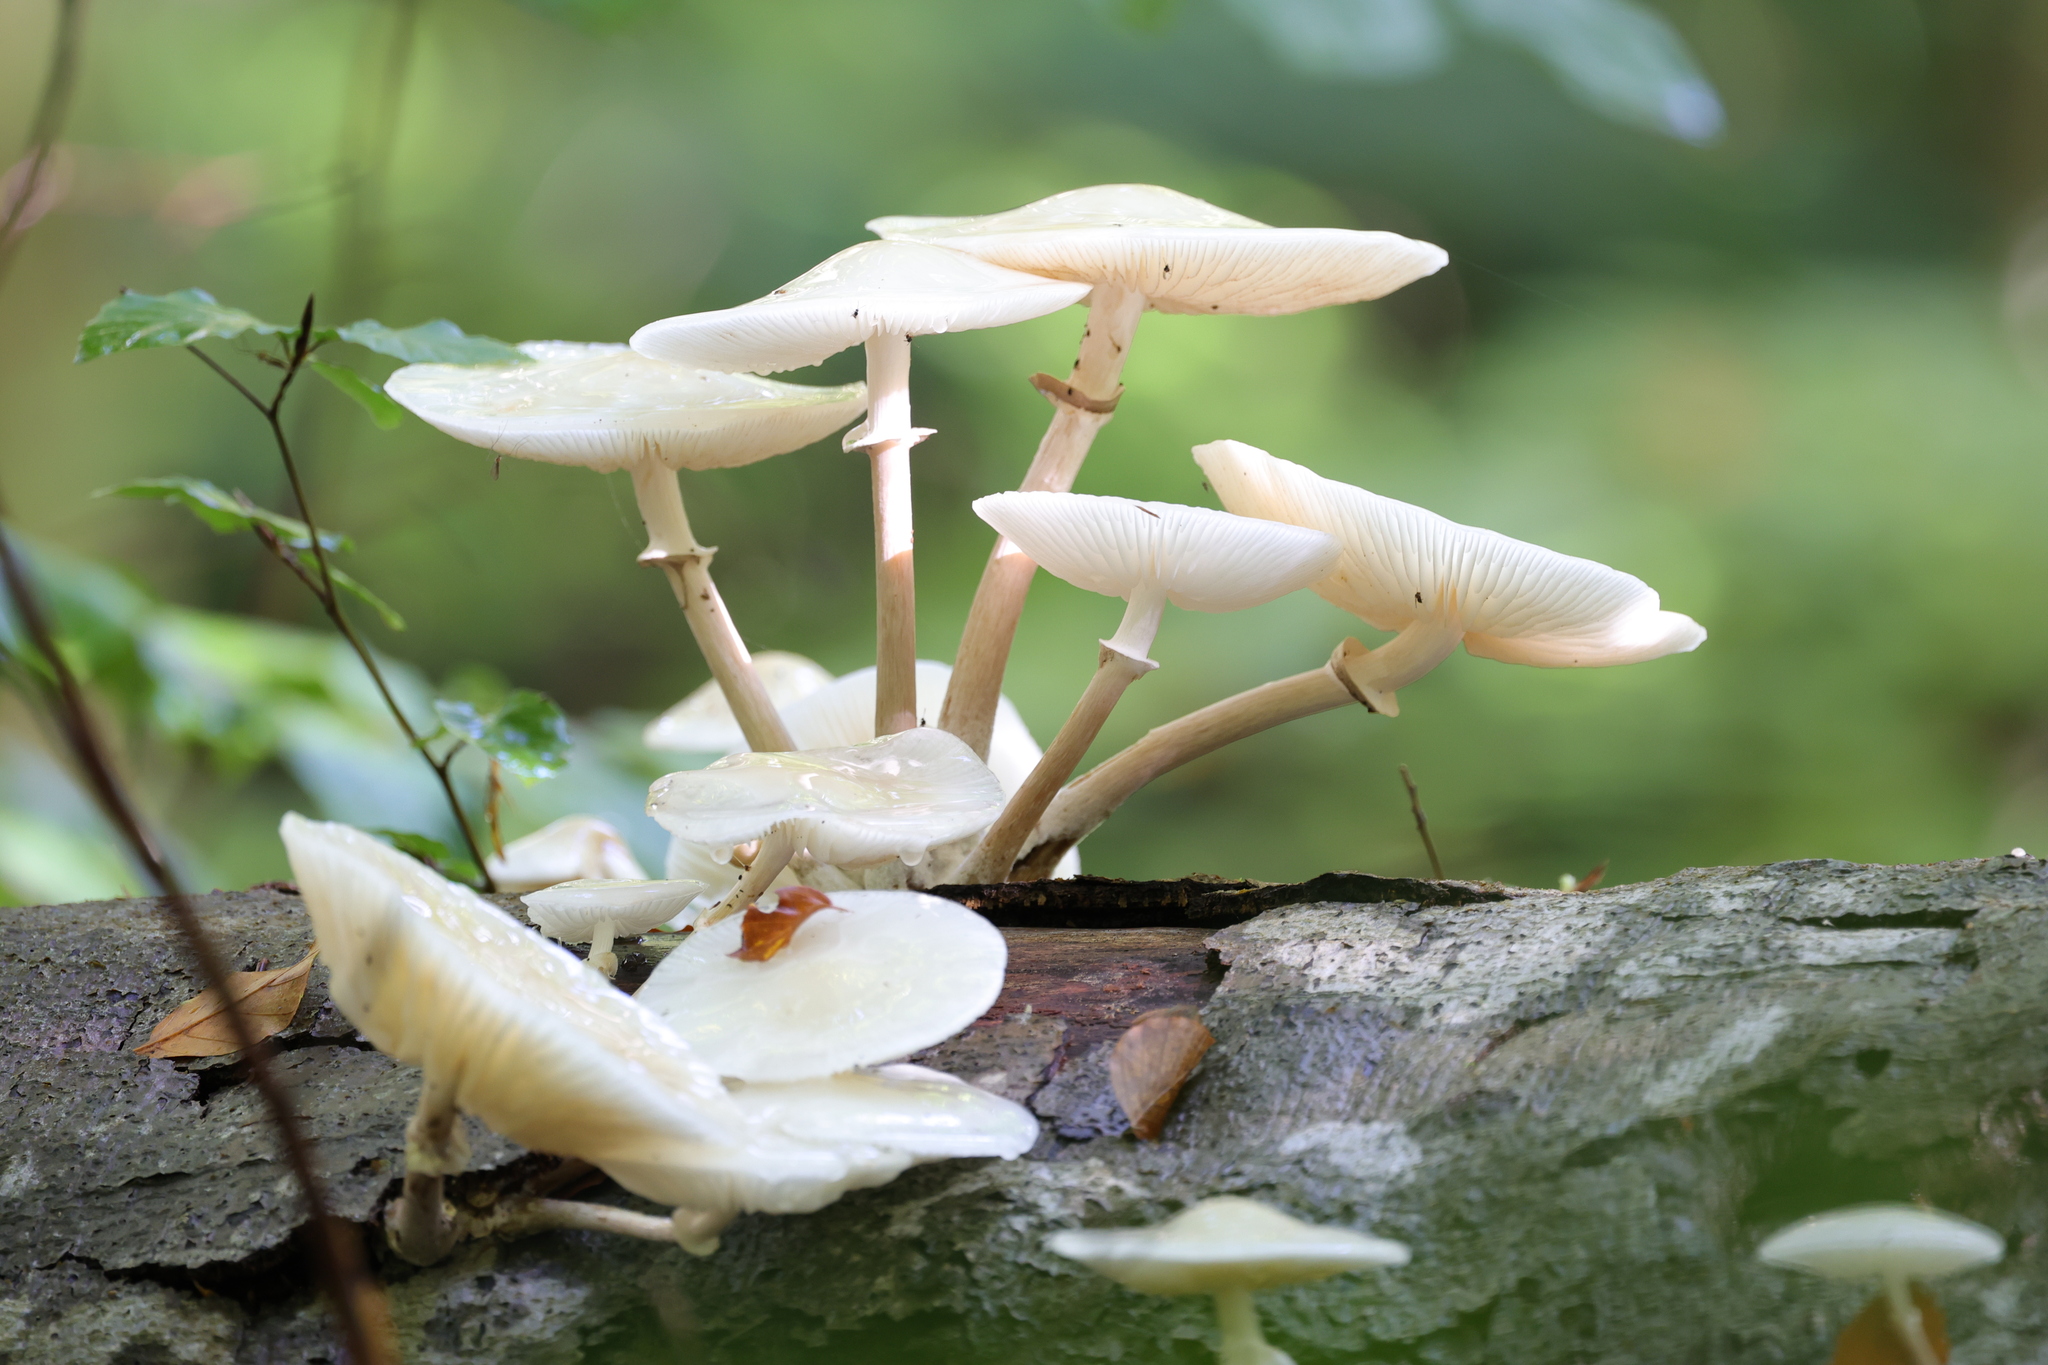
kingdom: Fungi
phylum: Basidiomycota
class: Agaricomycetes
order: Agaricales
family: Physalacriaceae
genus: Mucidula
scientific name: Mucidula mucida
